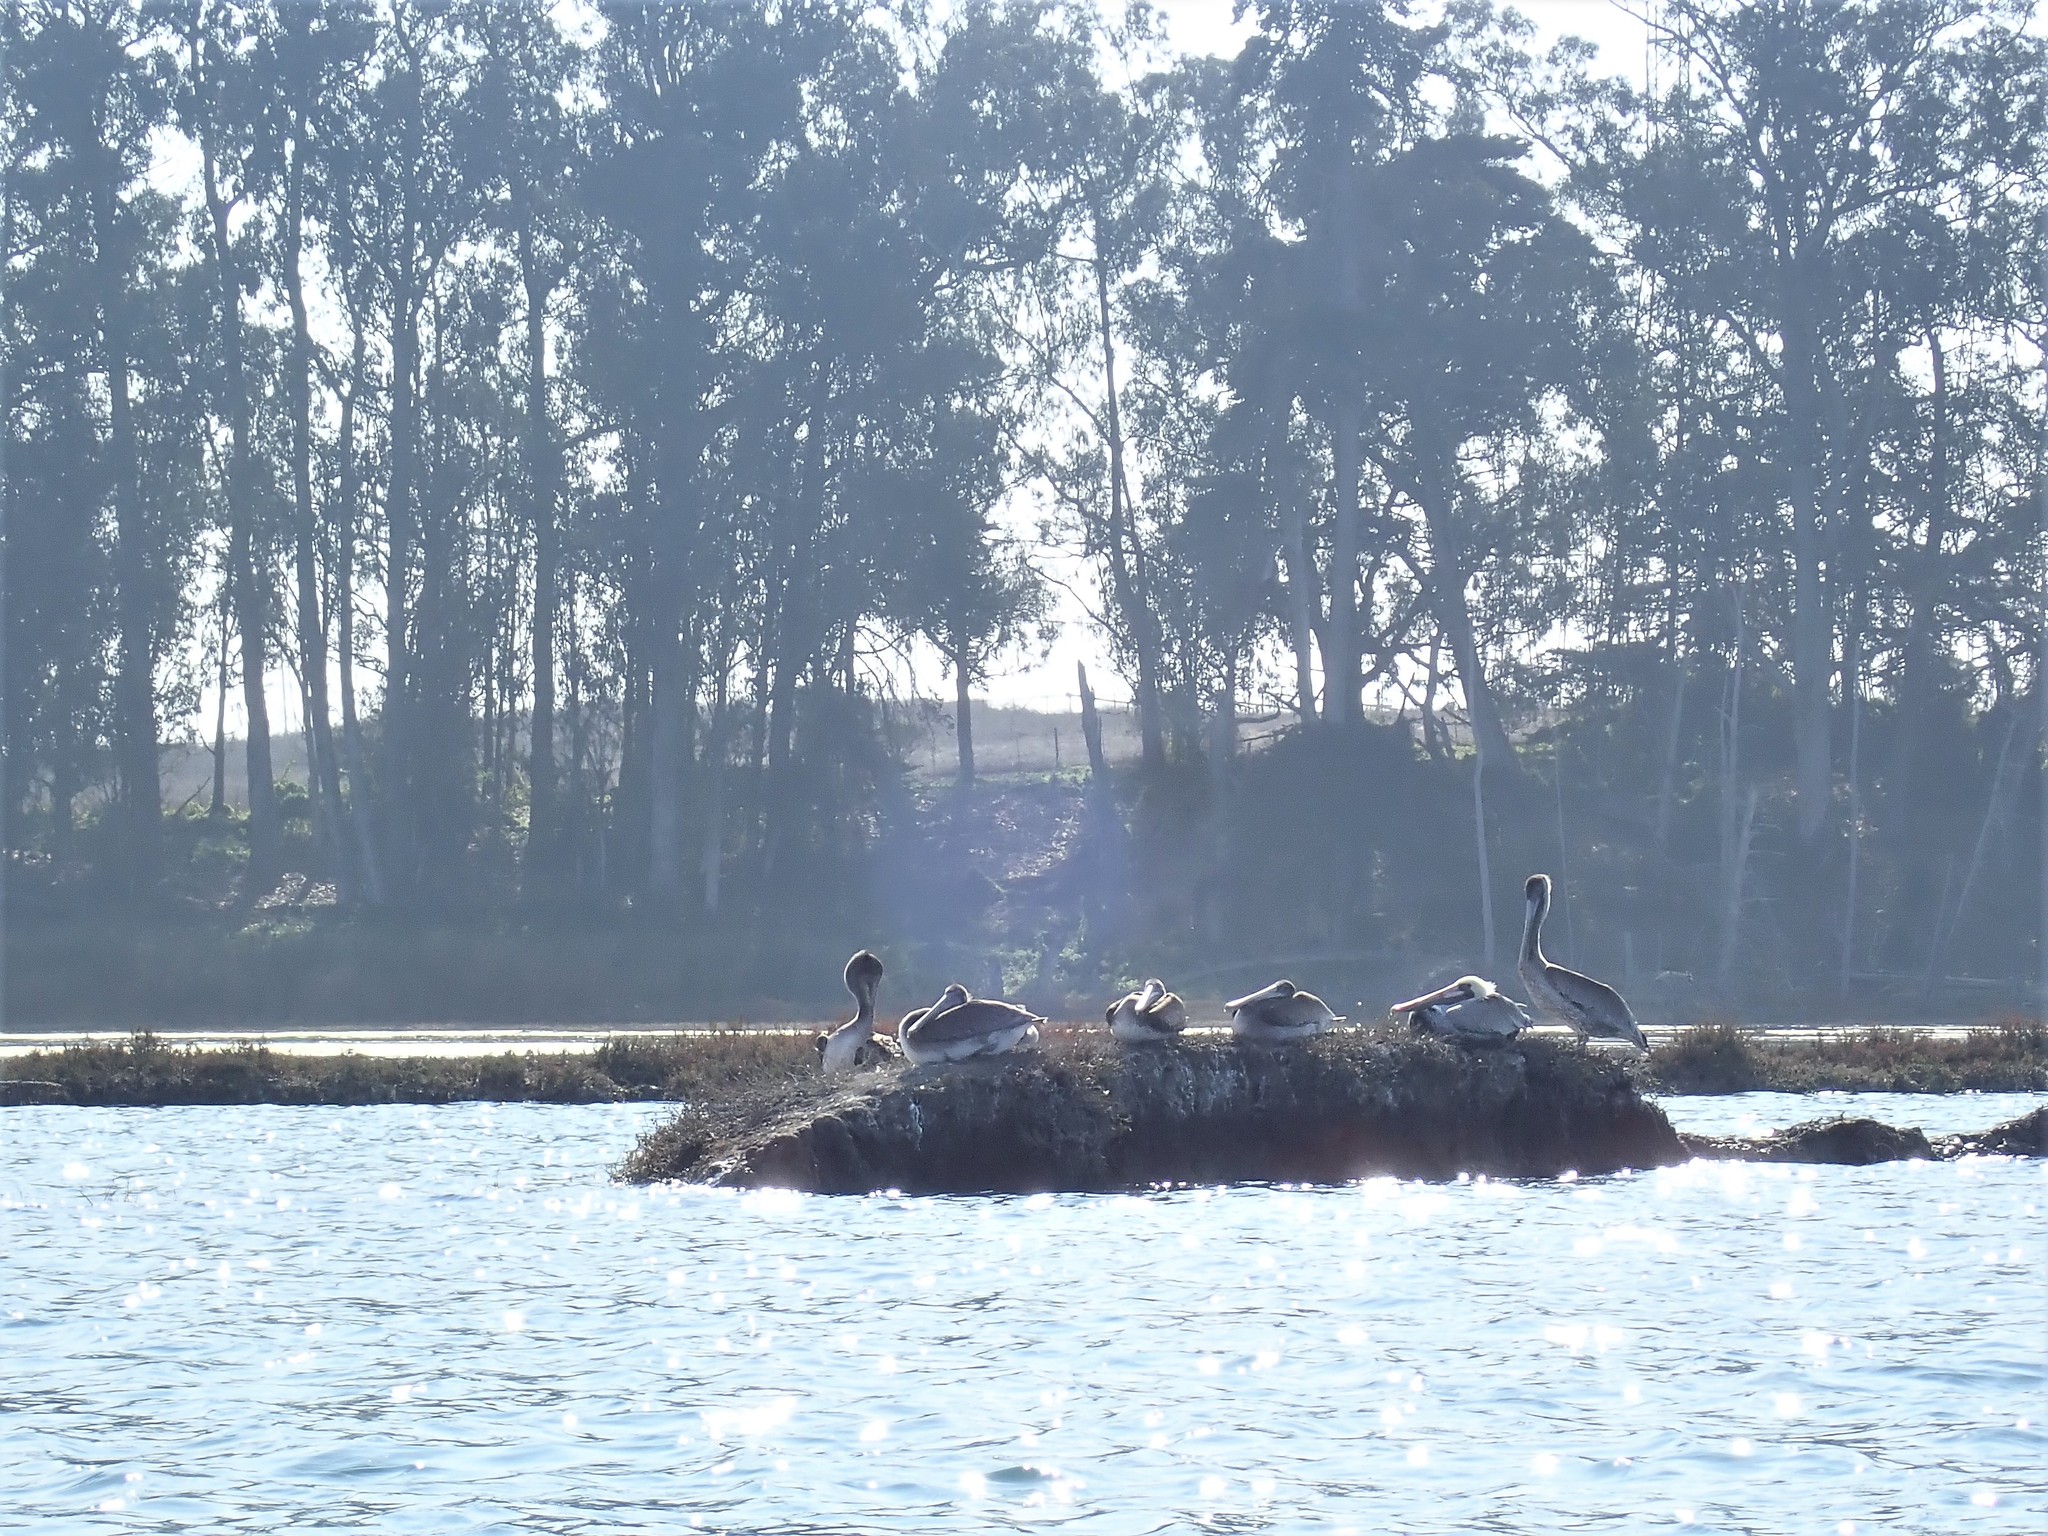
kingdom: Animalia
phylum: Chordata
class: Aves
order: Pelecaniformes
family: Pelecanidae
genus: Pelecanus
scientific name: Pelecanus occidentalis
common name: Brown pelican
